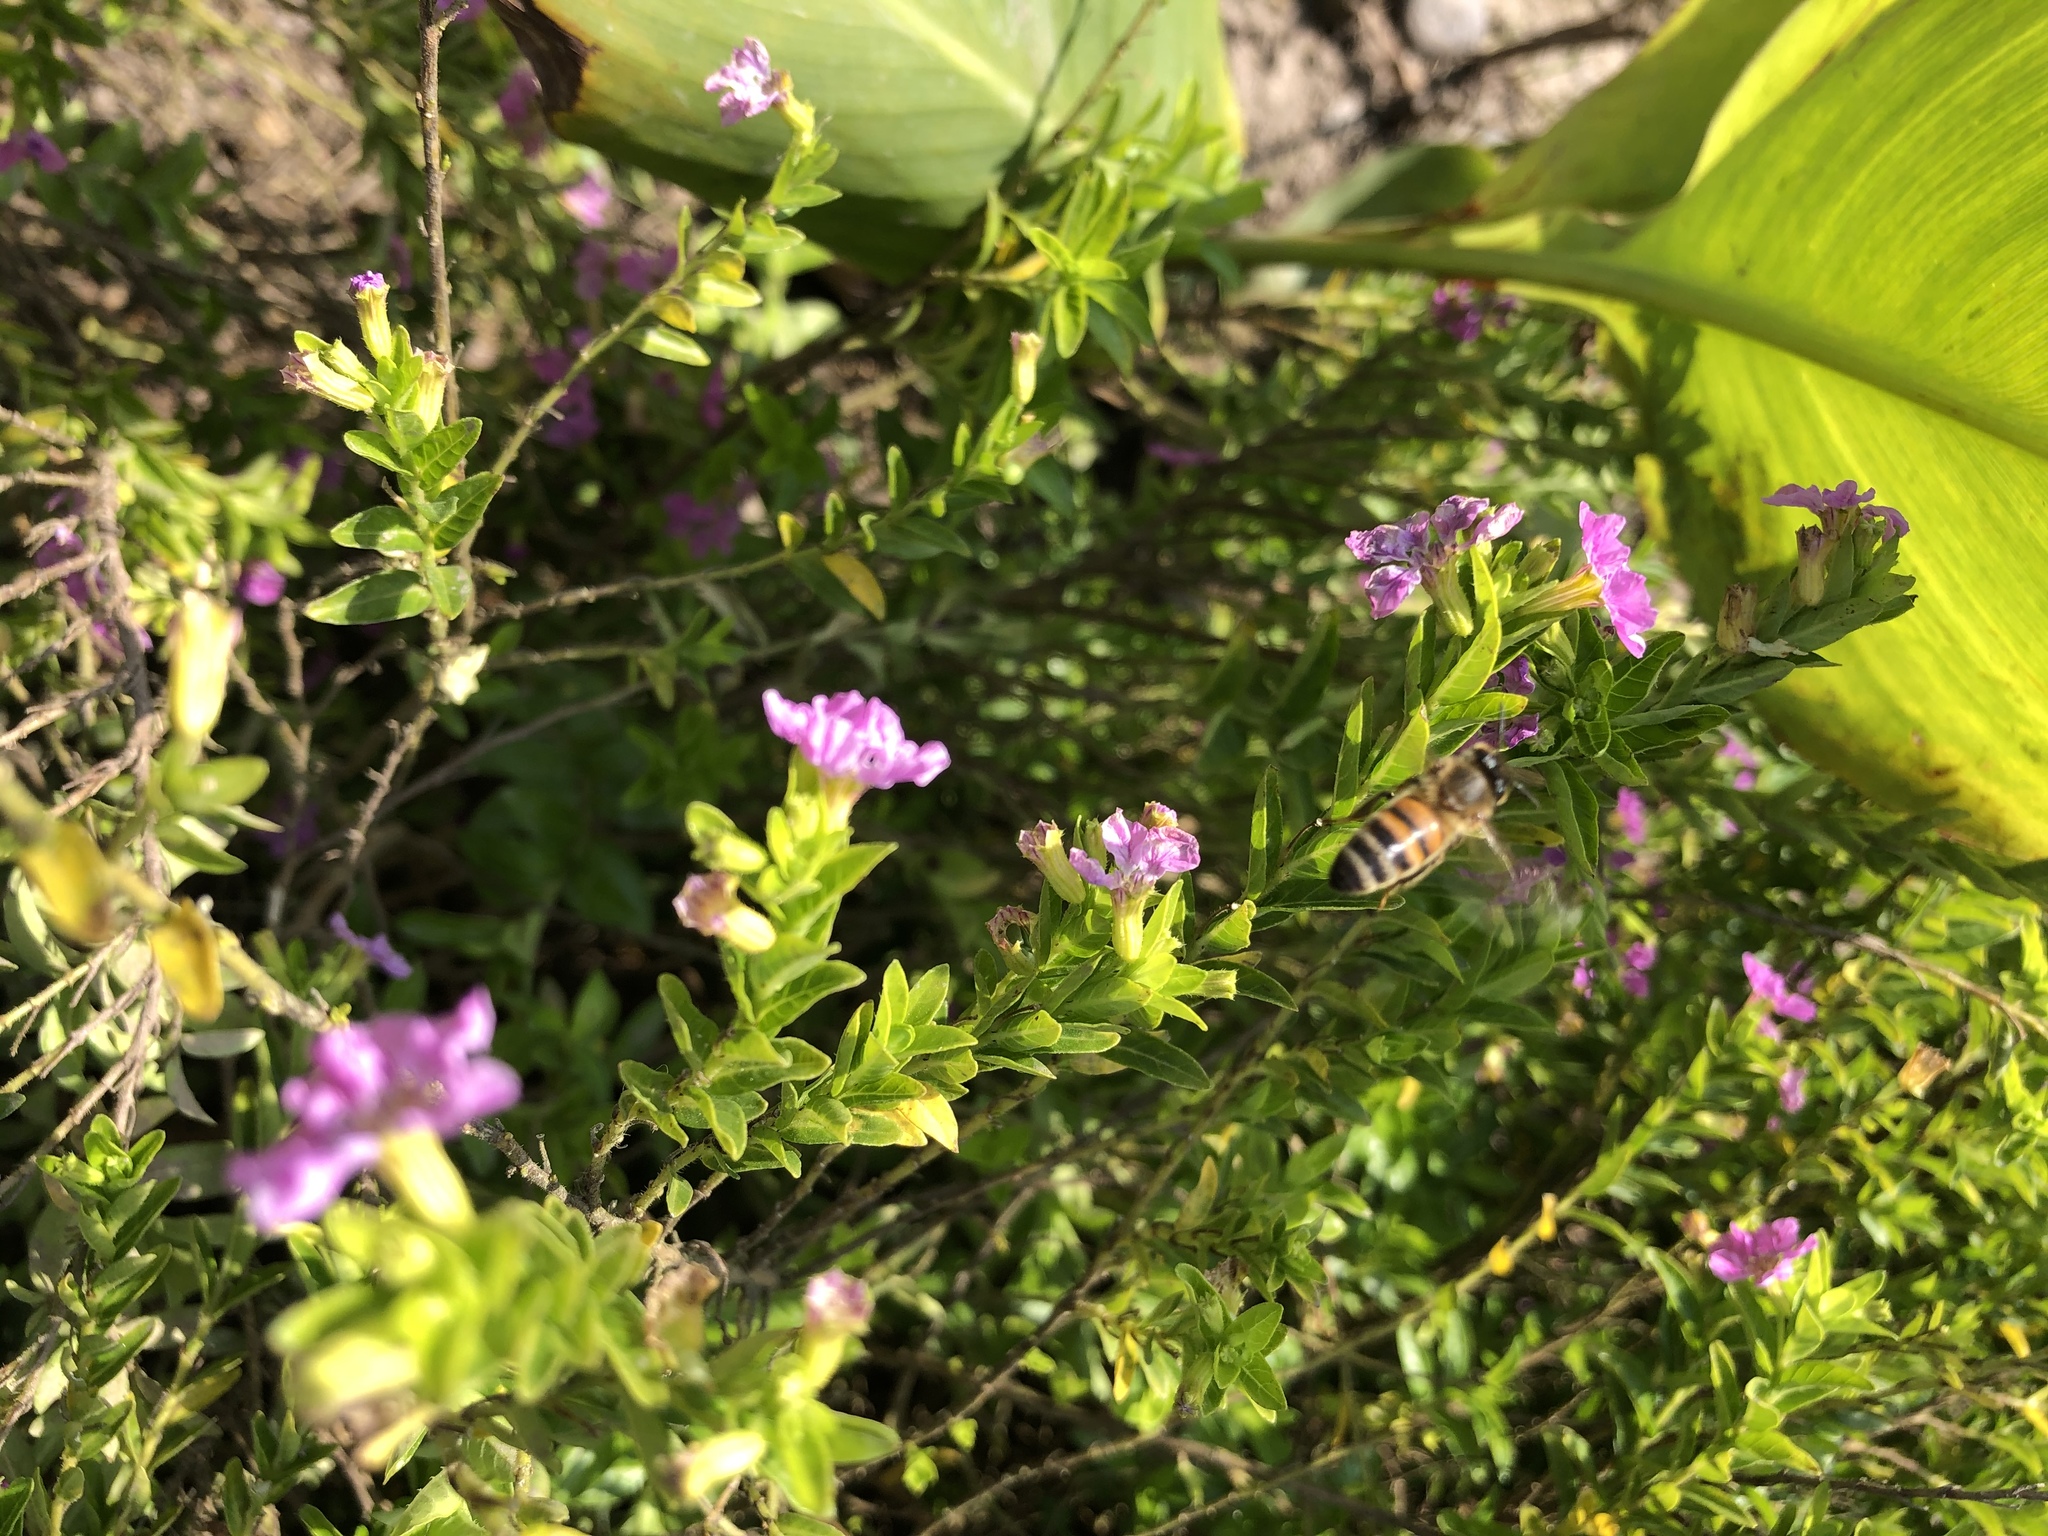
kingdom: Animalia
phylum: Arthropoda
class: Insecta
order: Hymenoptera
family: Apidae
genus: Apis
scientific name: Apis mellifera
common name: Honey bee
